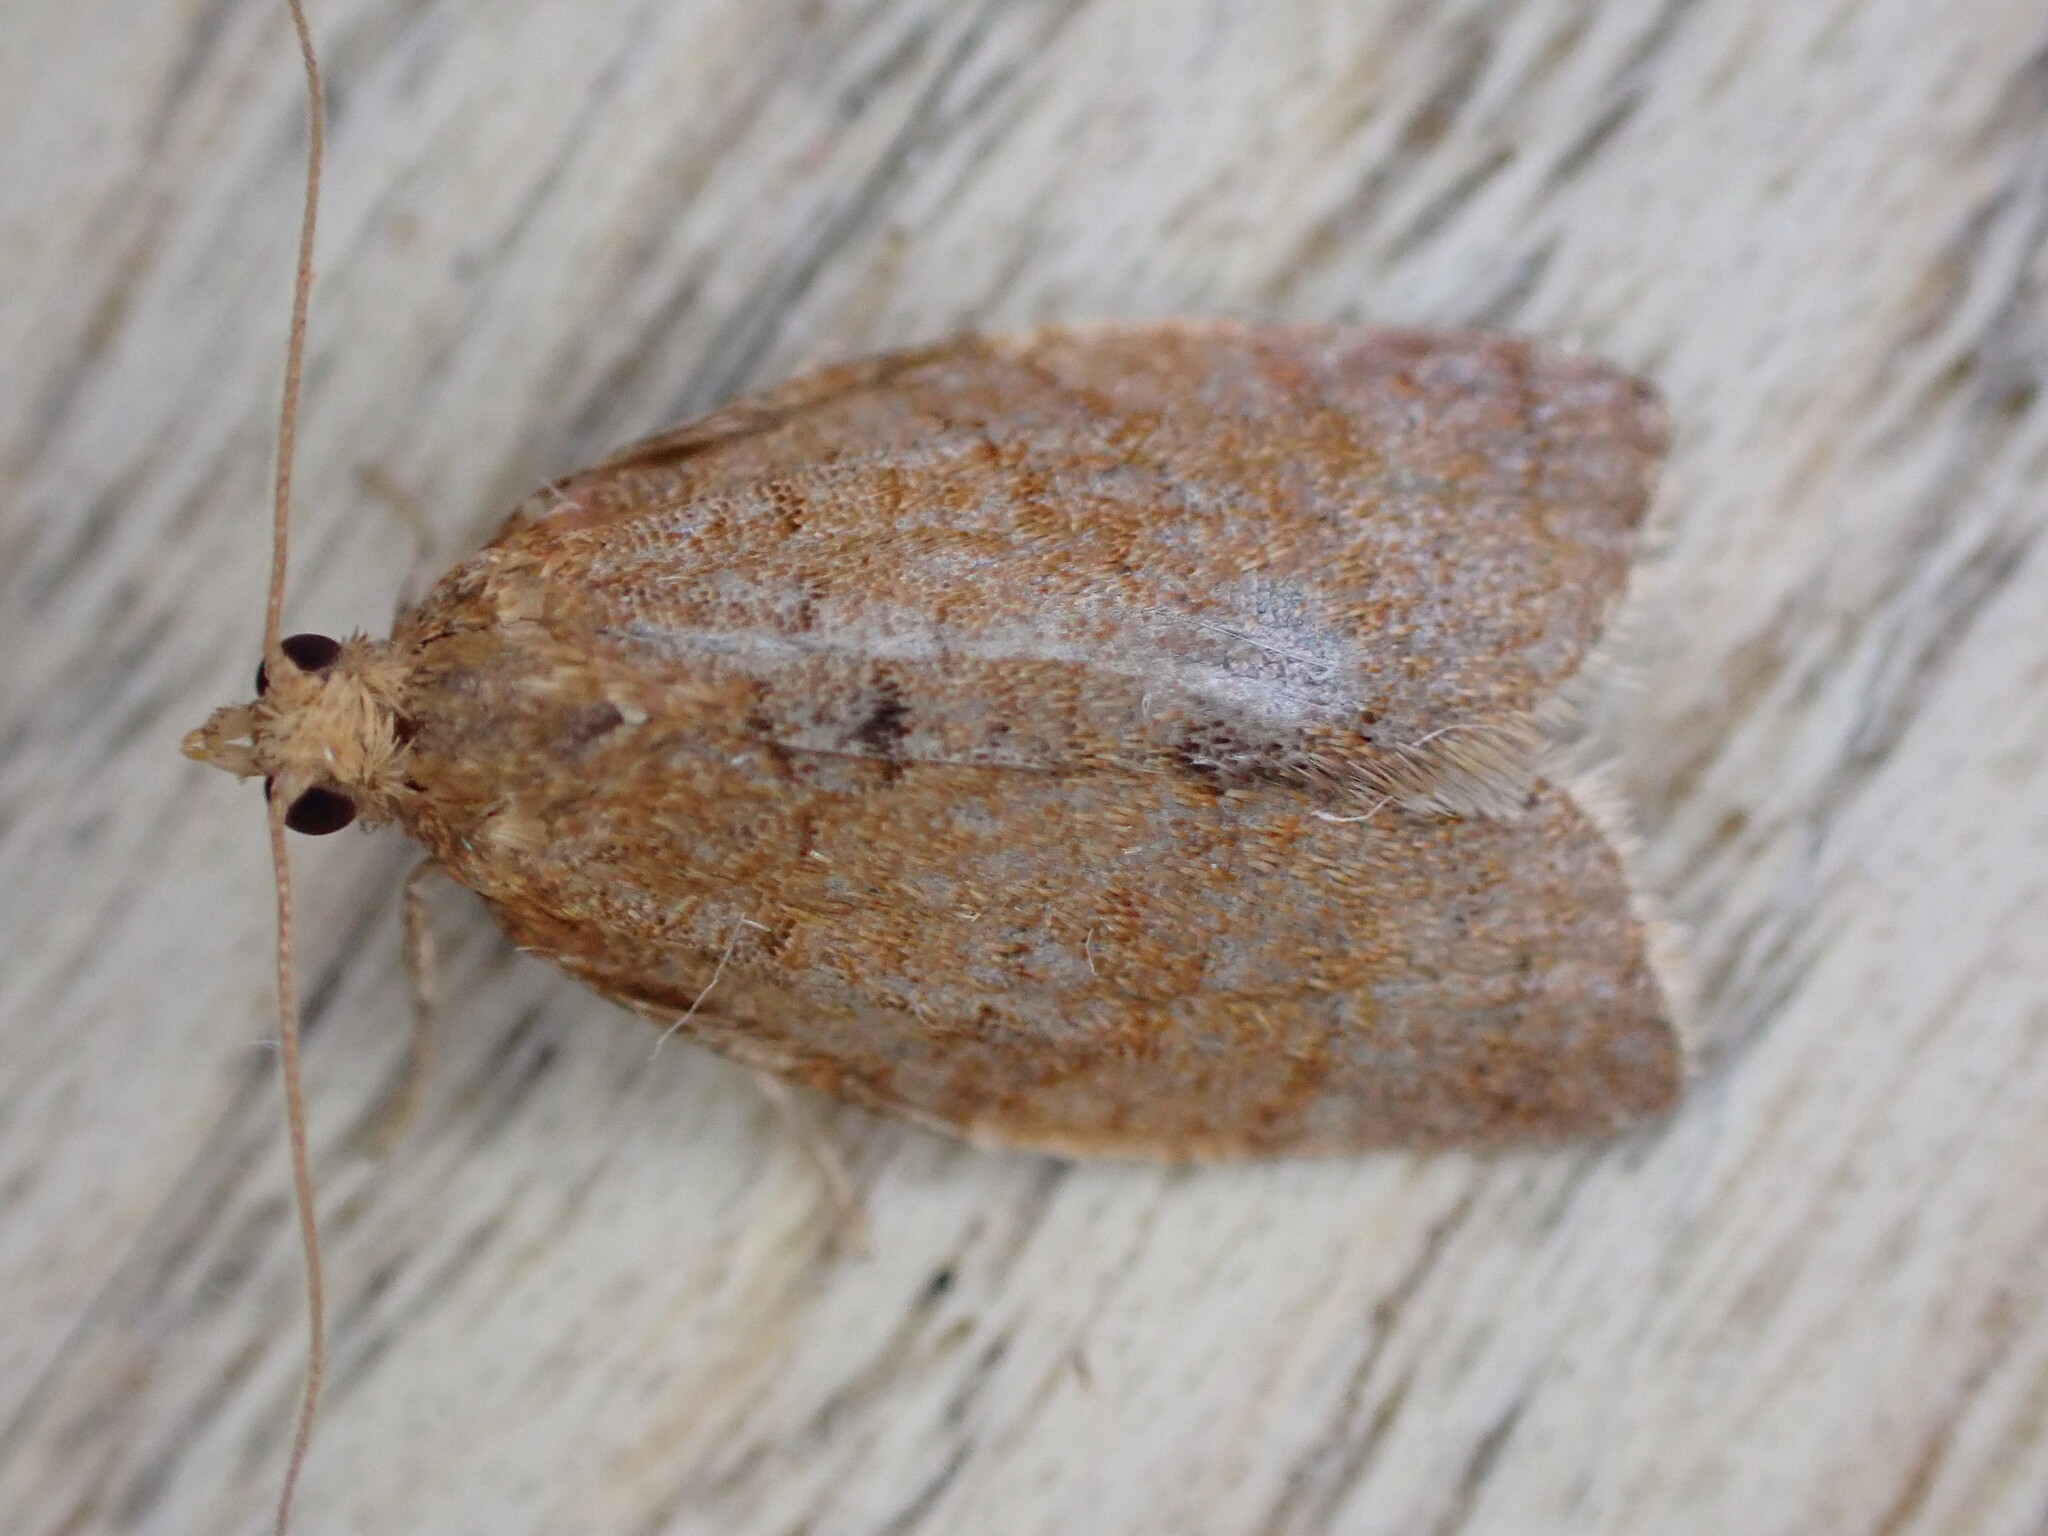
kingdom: Animalia
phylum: Arthropoda
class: Insecta
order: Lepidoptera
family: Tortricidae
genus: Clepsis
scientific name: Clepsis consimilana
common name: Privet tortrix
